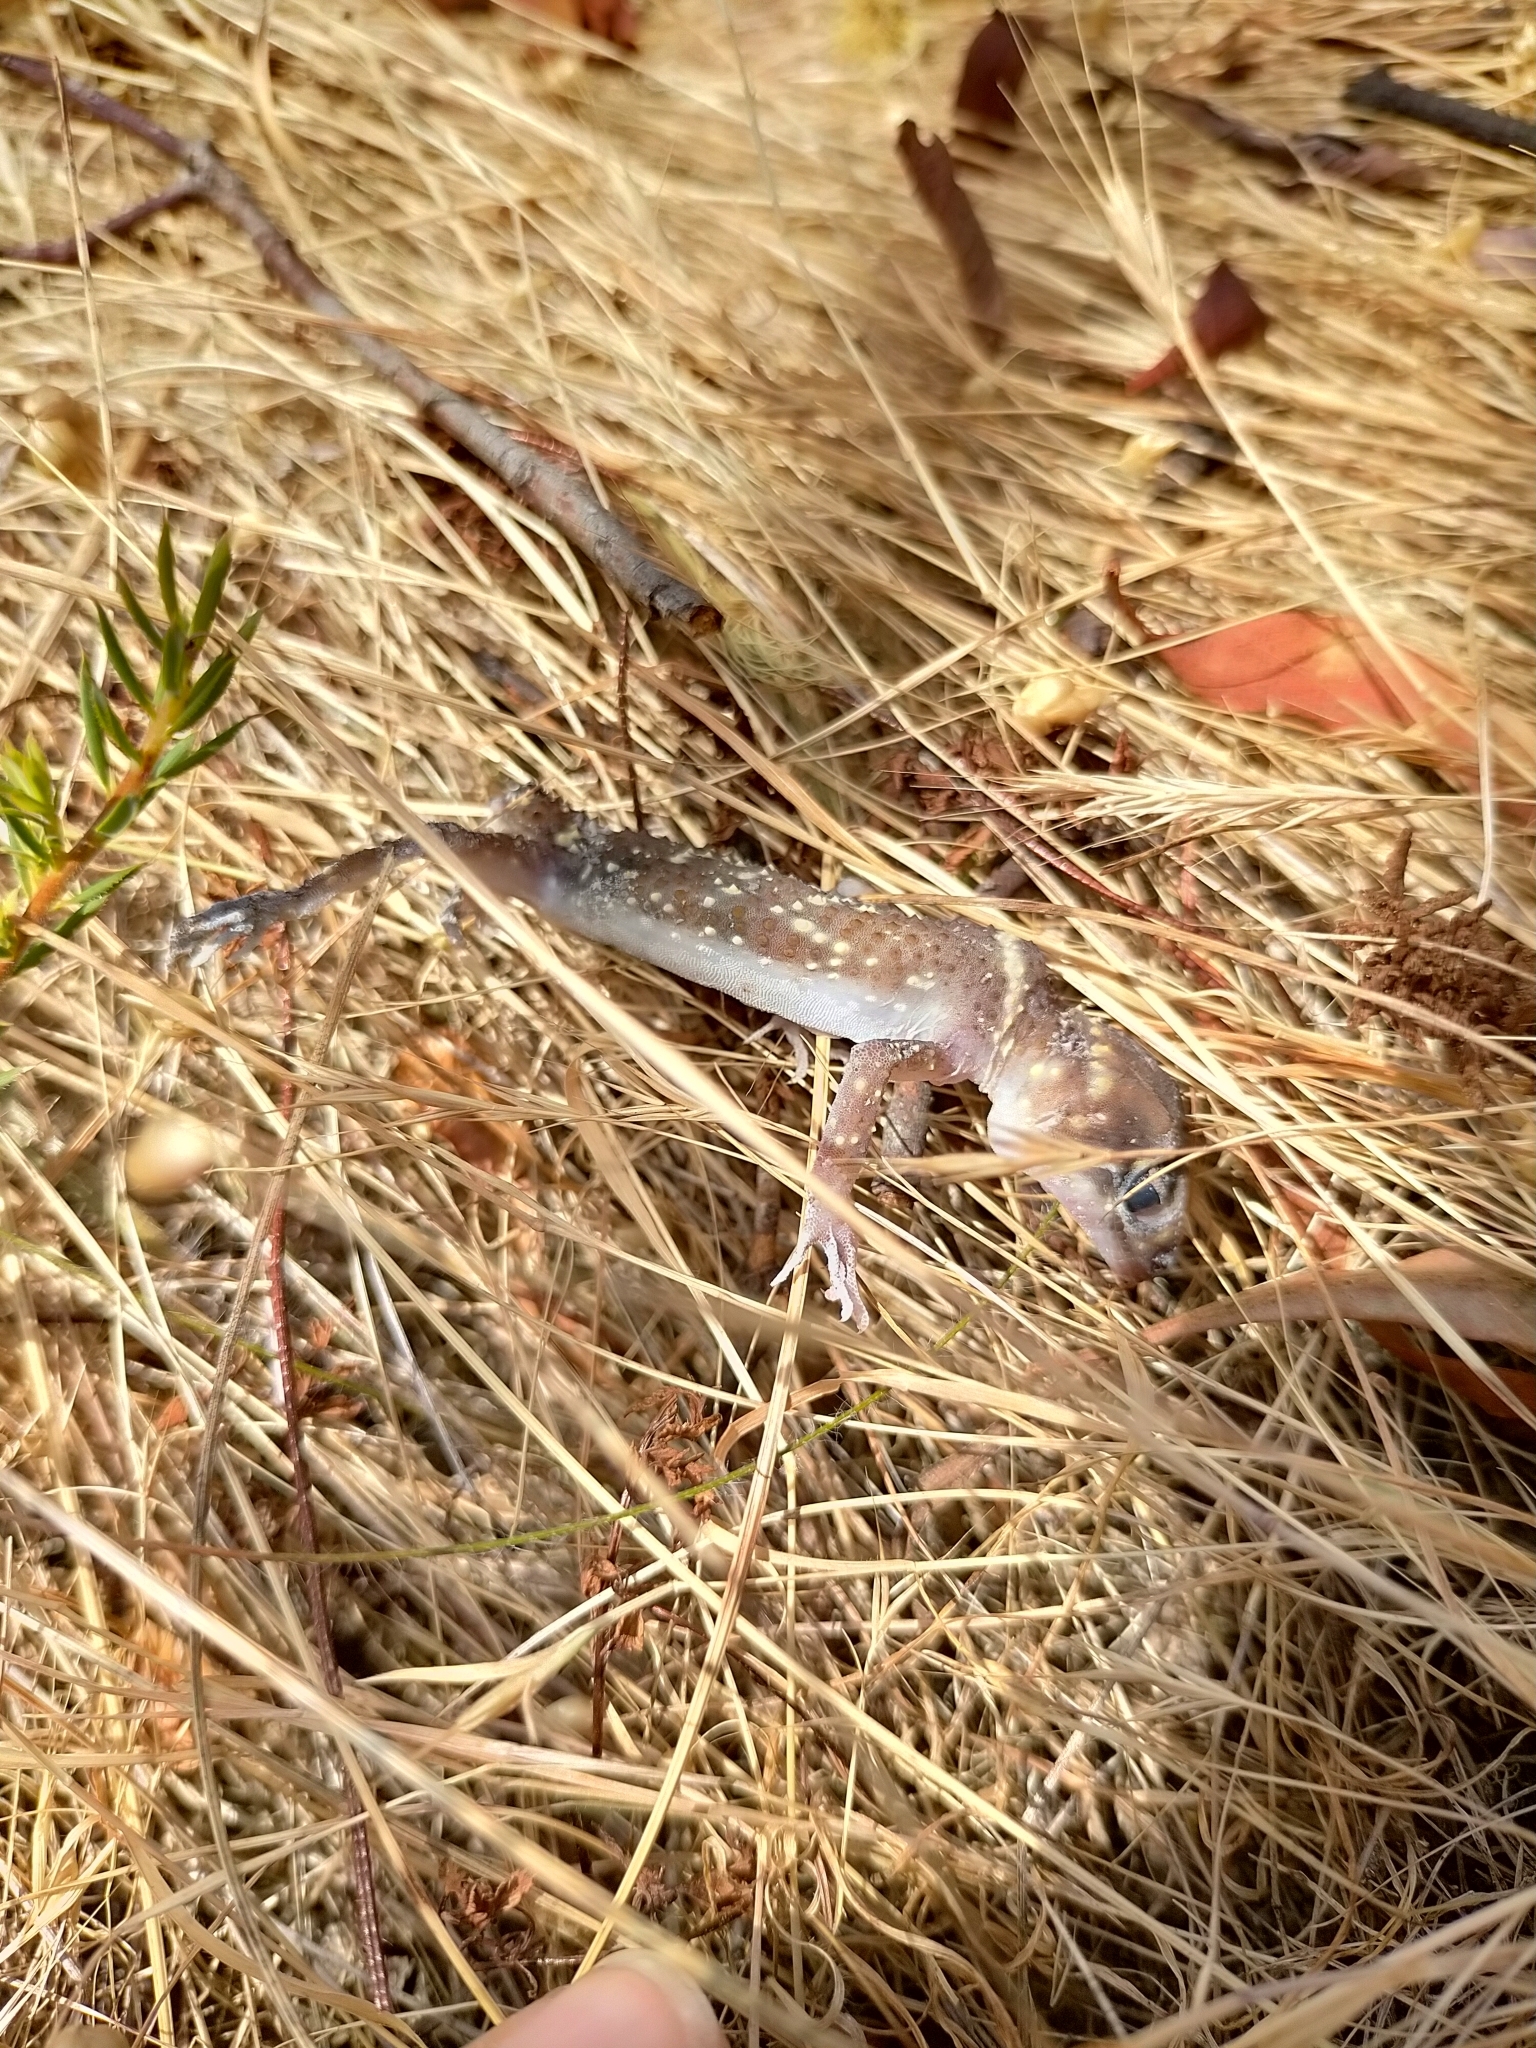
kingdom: Animalia
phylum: Chordata
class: Squamata
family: Carphodactylidae
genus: Underwoodisaurus
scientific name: Underwoodisaurus milii
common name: Barking gecko
